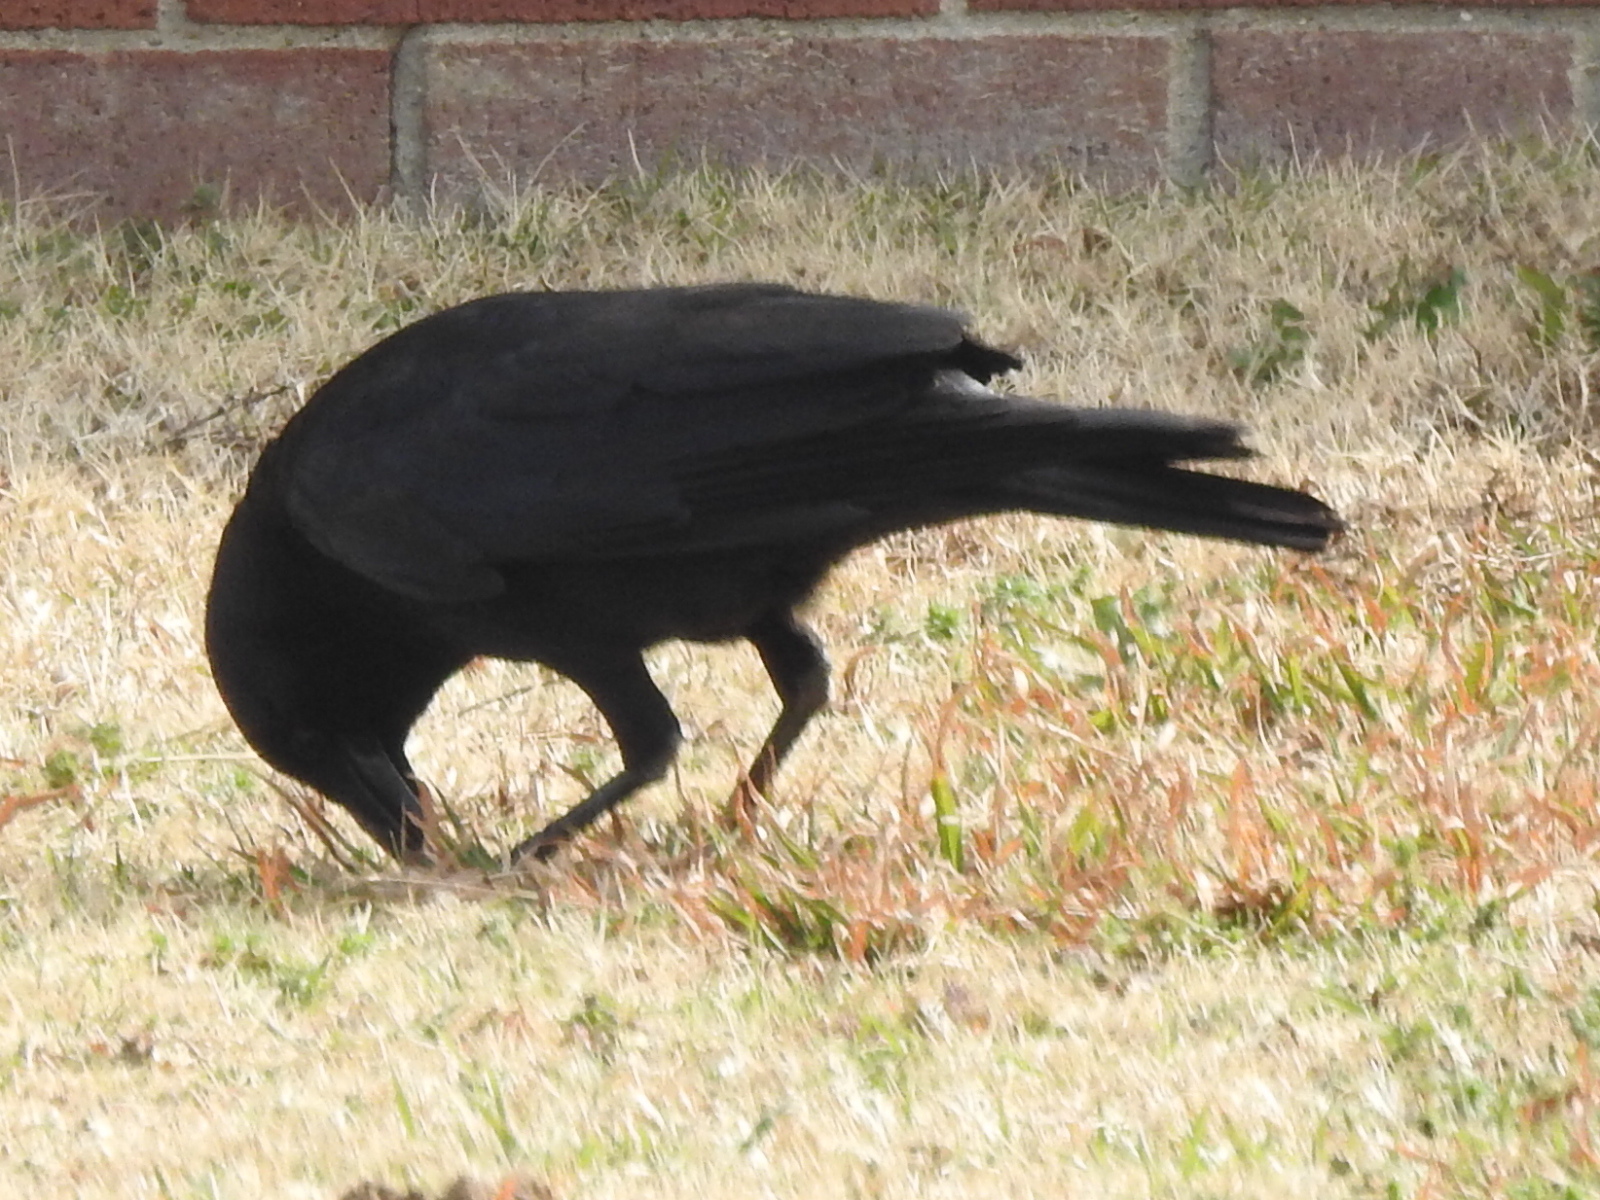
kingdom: Animalia
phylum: Chordata
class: Aves
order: Passeriformes
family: Corvidae
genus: Corvus
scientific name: Corvus brachyrhynchos
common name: American crow
